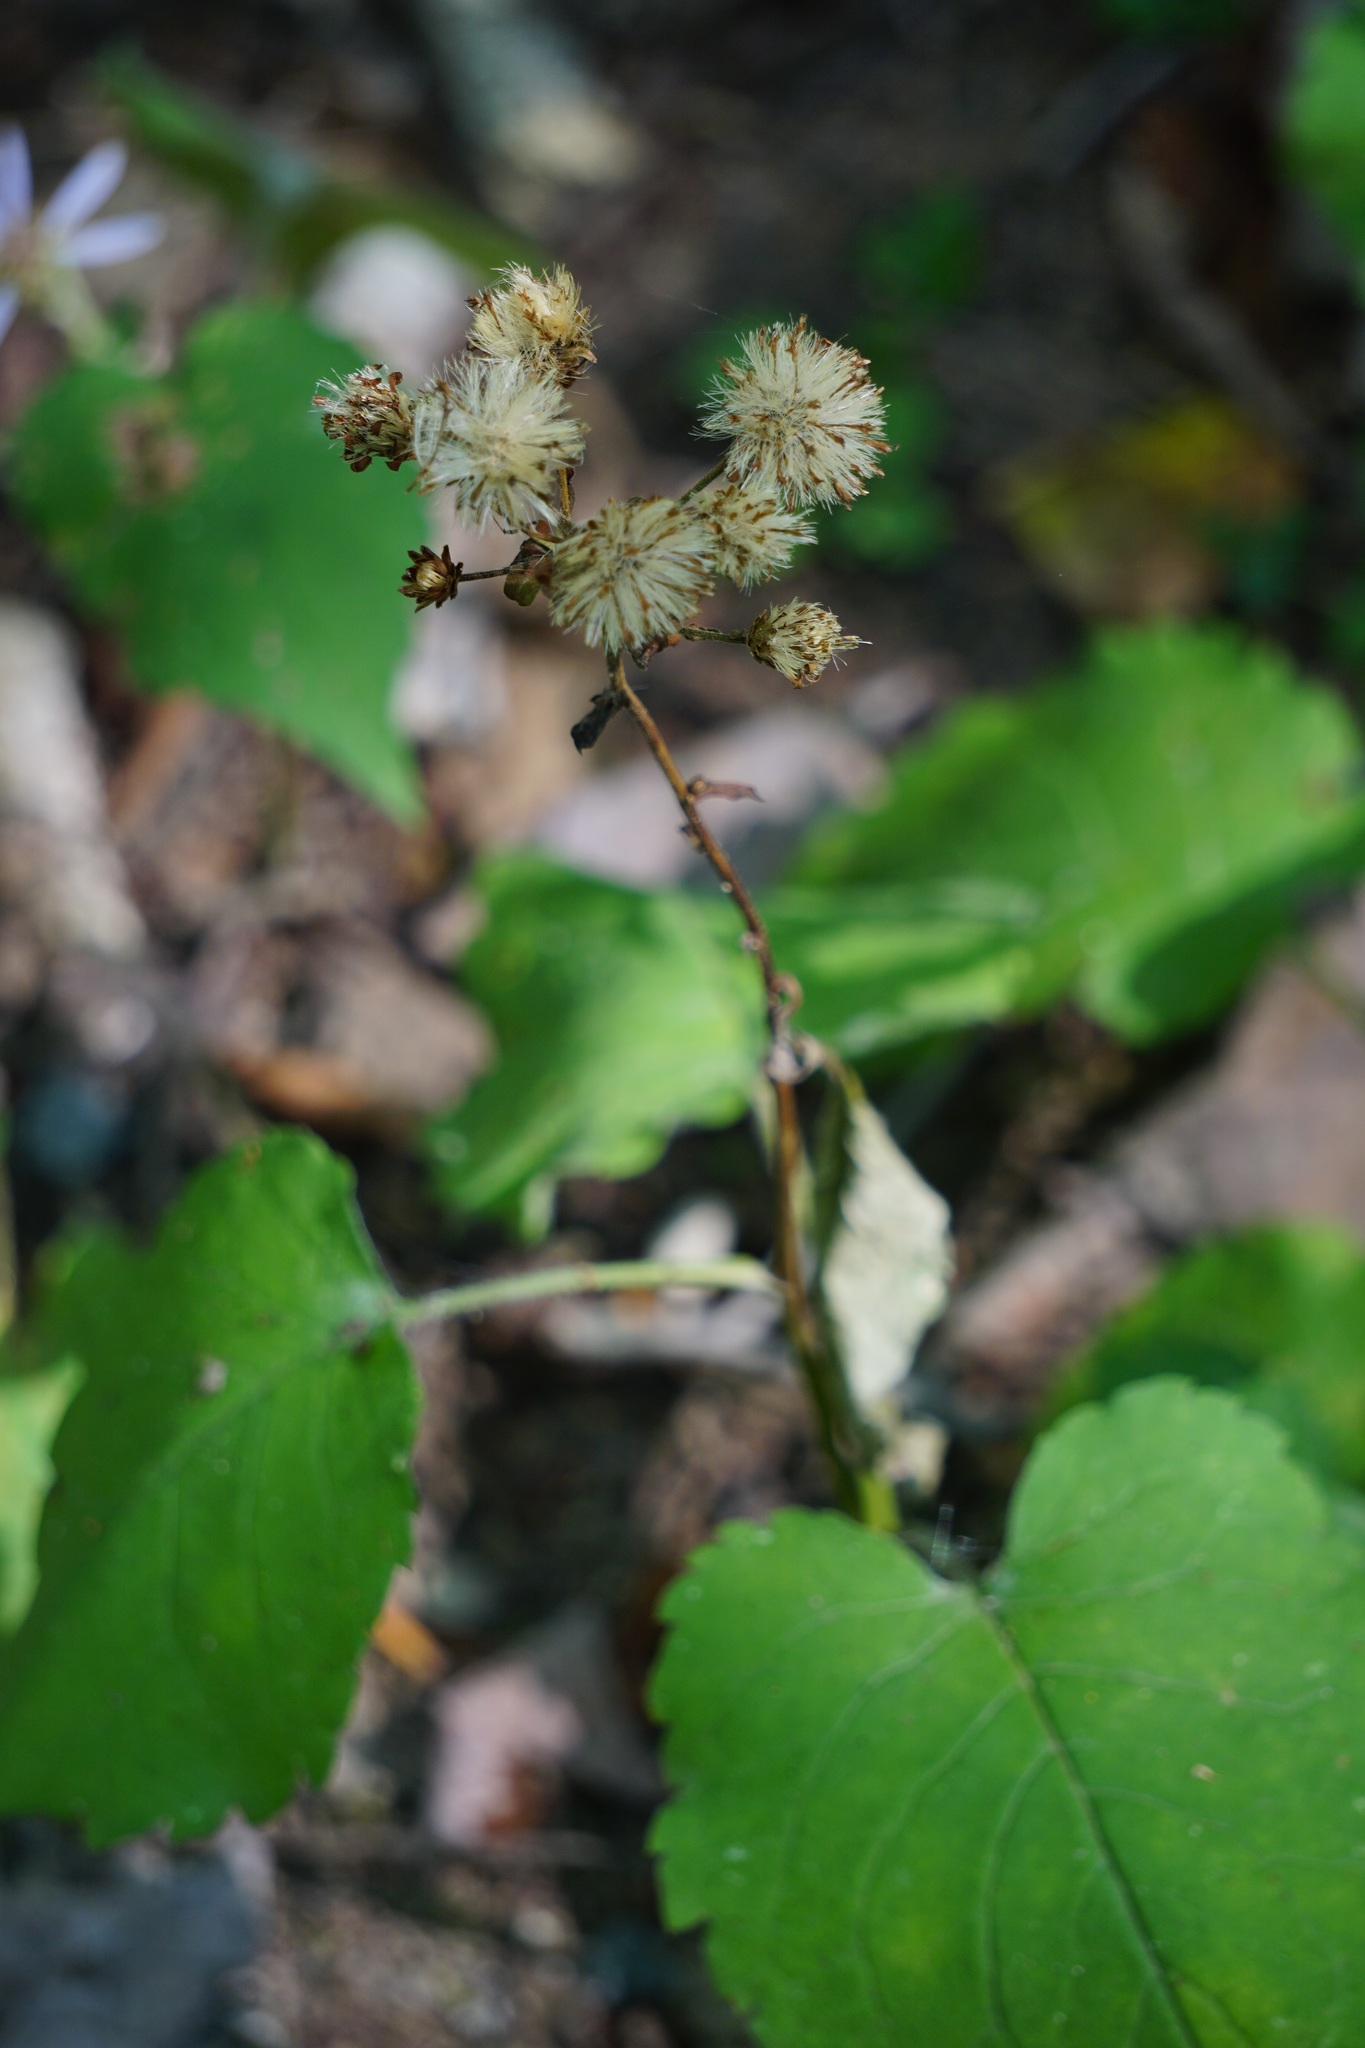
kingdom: Plantae
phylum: Tracheophyta
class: Magnoliopsida
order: Asterales
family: Asteraceae
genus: Solidago
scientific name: Solidago bicolor
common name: Silverrod
